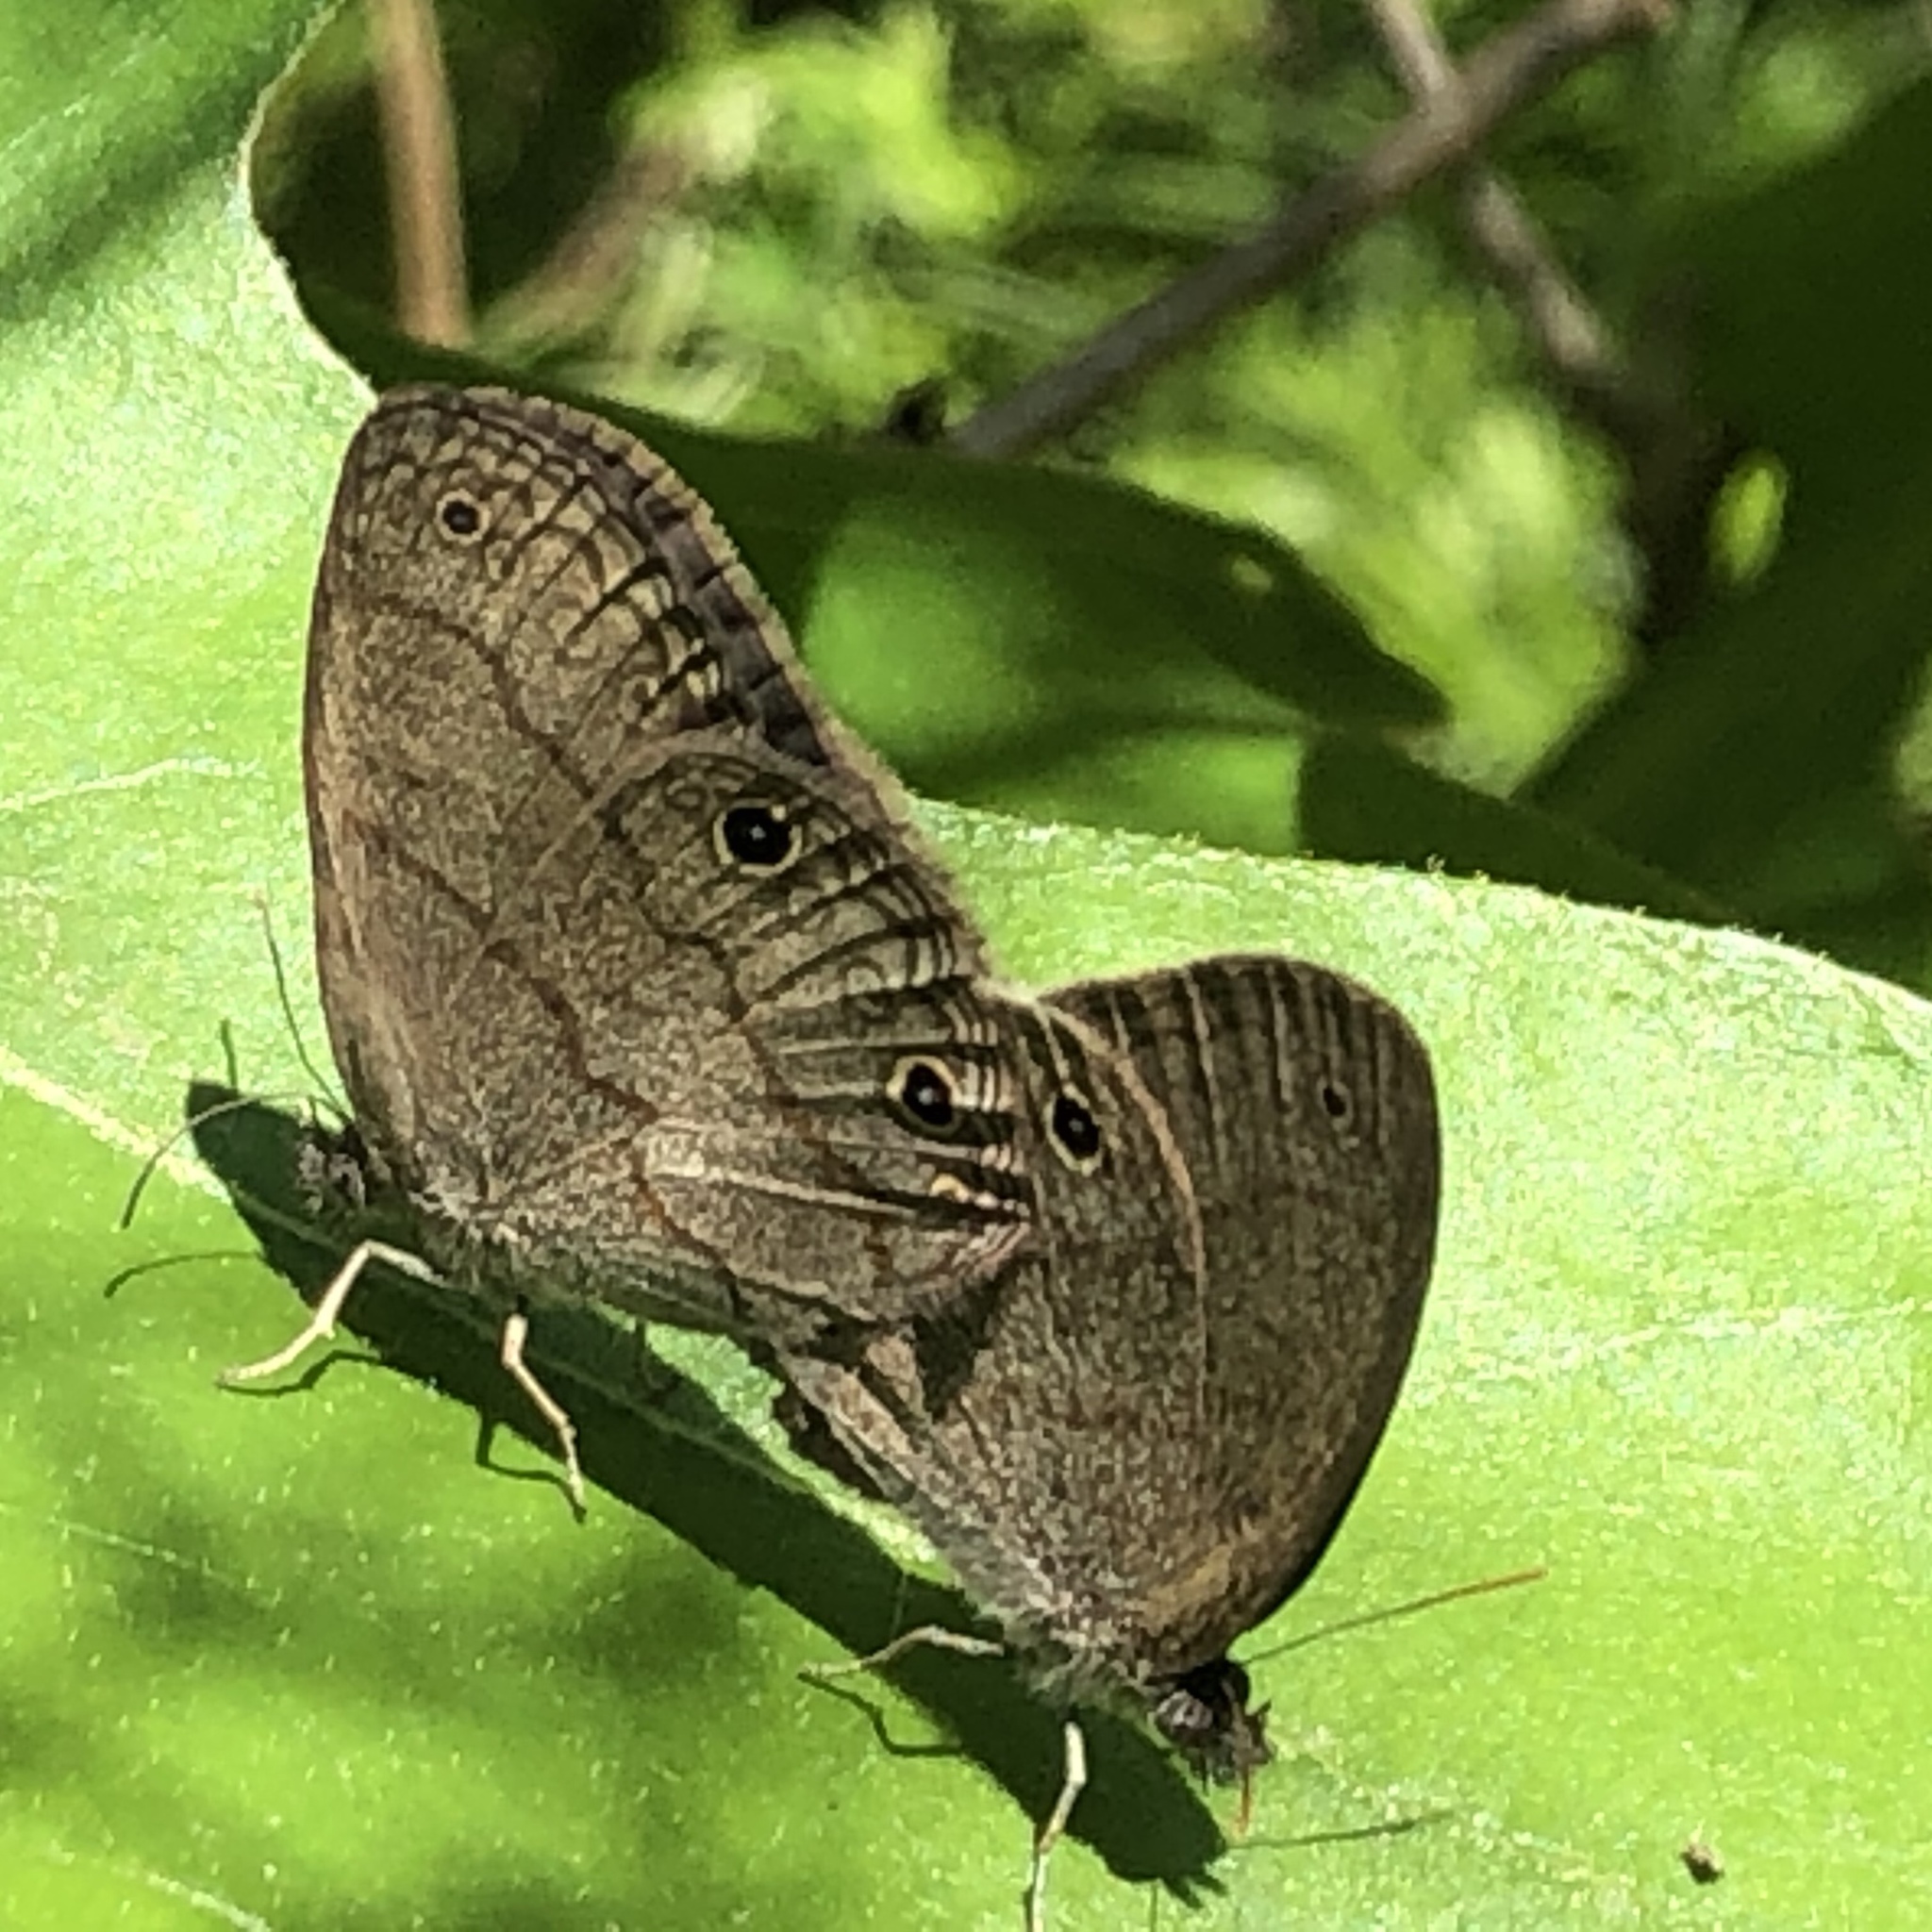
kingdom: Animalia
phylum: Arthropoda
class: Insecta
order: Lepidoptera
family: Nymphalidae
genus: Hermeuptychia
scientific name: Hermeuptychia hermes
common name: Hermes satyr
